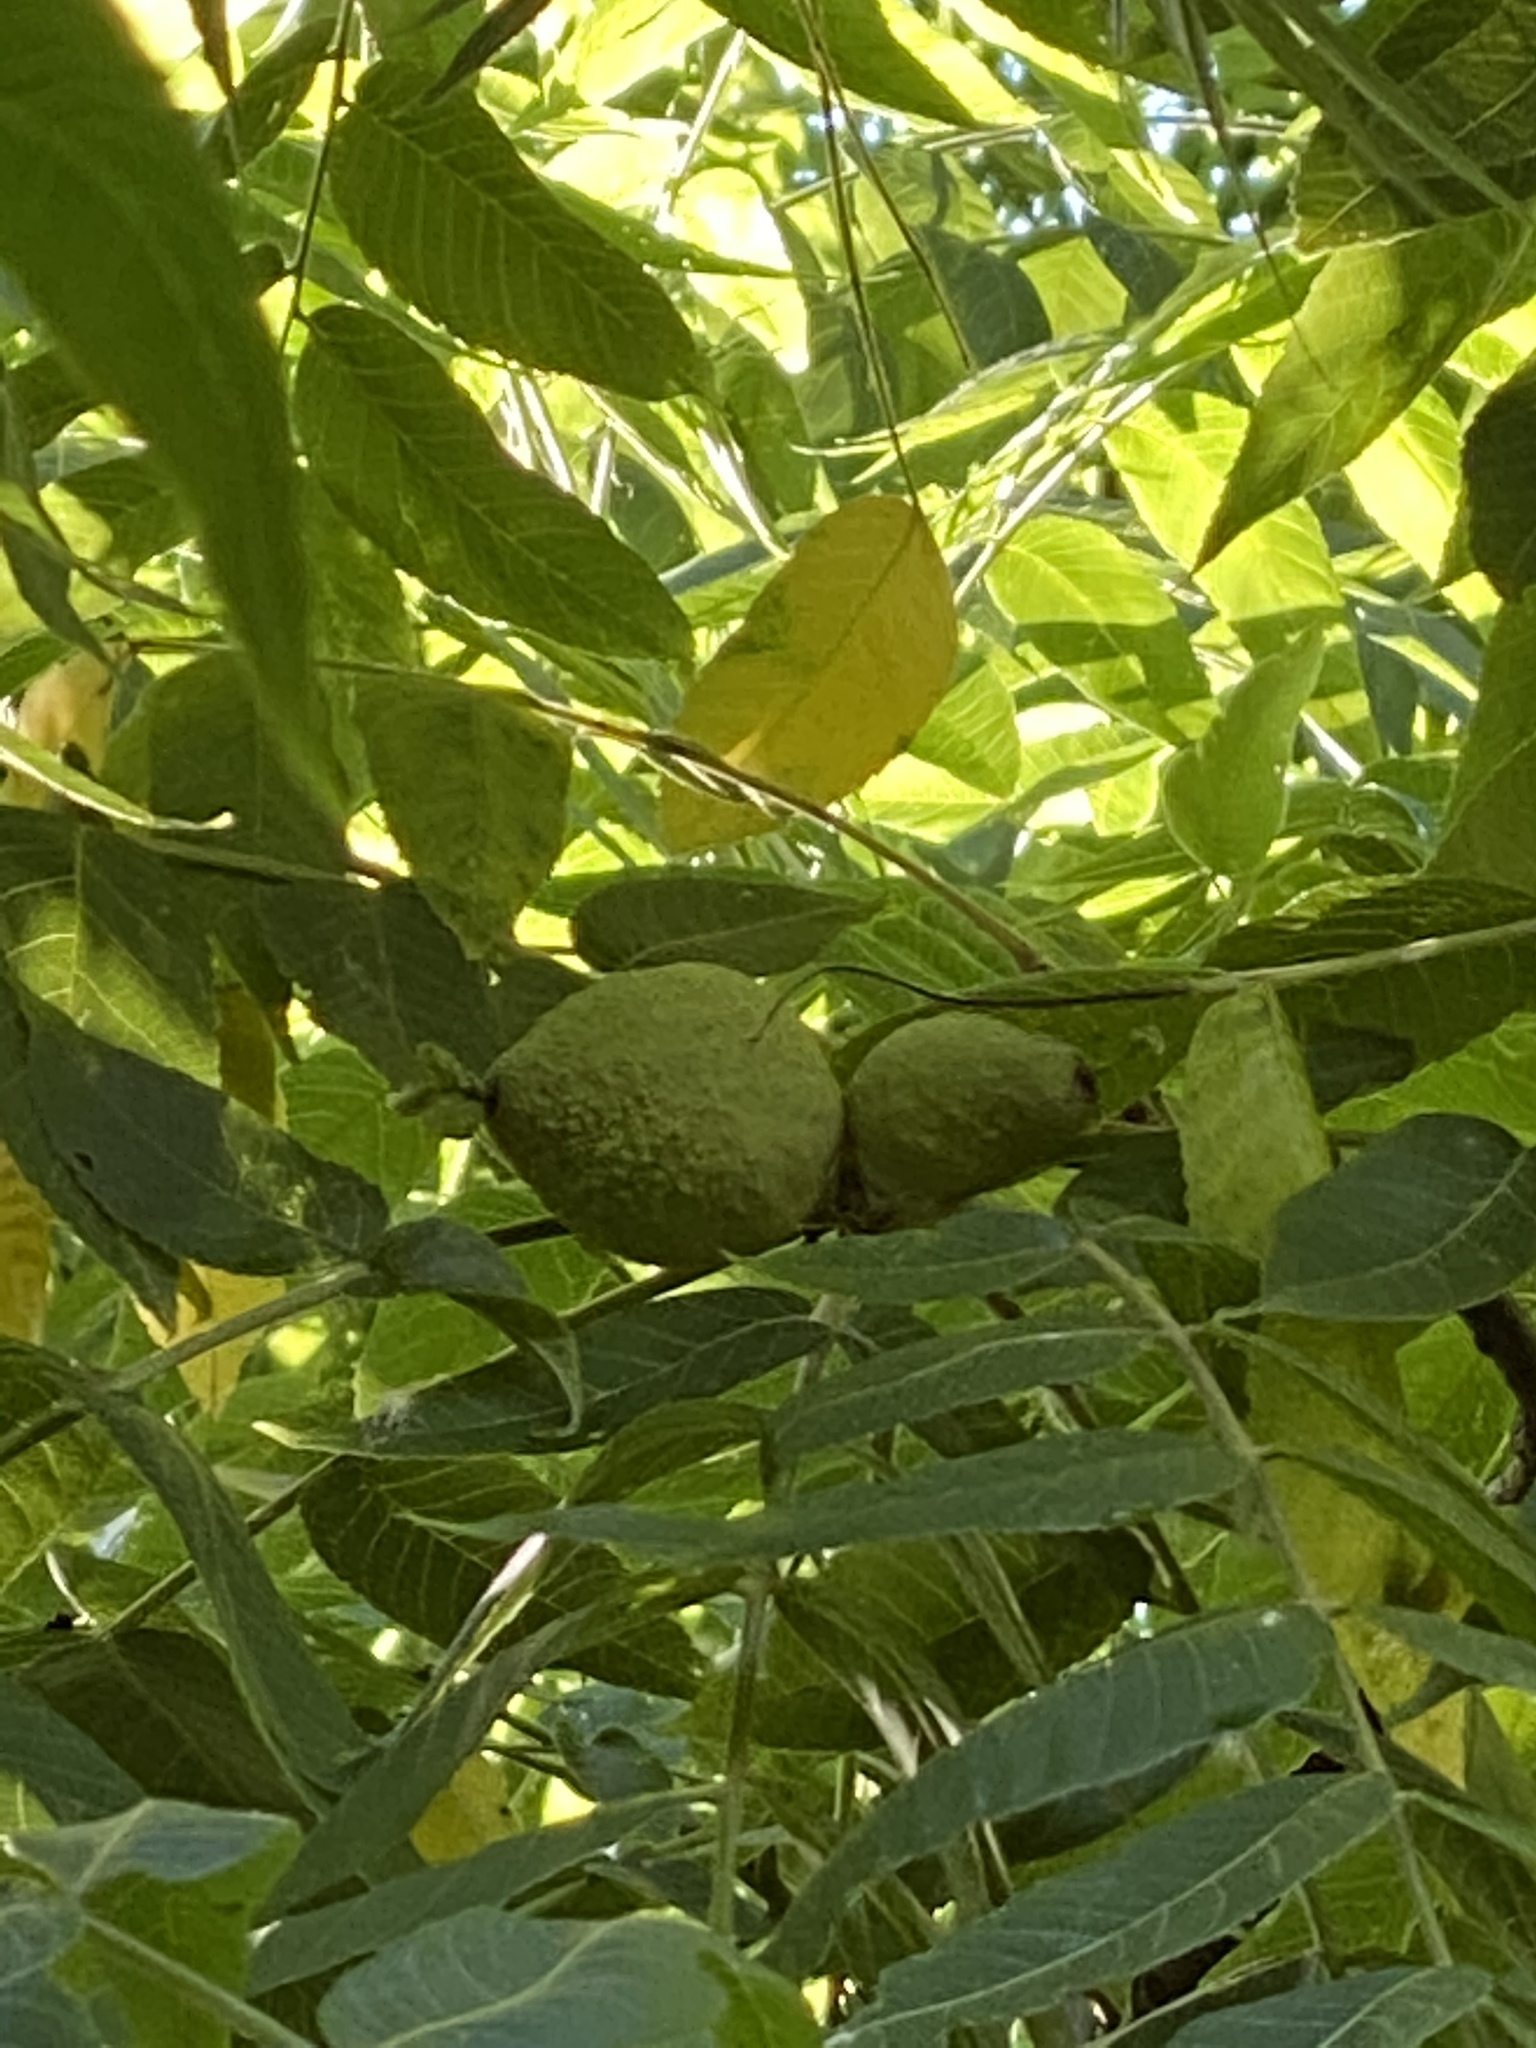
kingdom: Plantae
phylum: Tracheophyta
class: Magnoliopsida
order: Fagales
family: Juglandaceae
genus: Juglans
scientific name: Juglans nigra
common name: Black walnut
